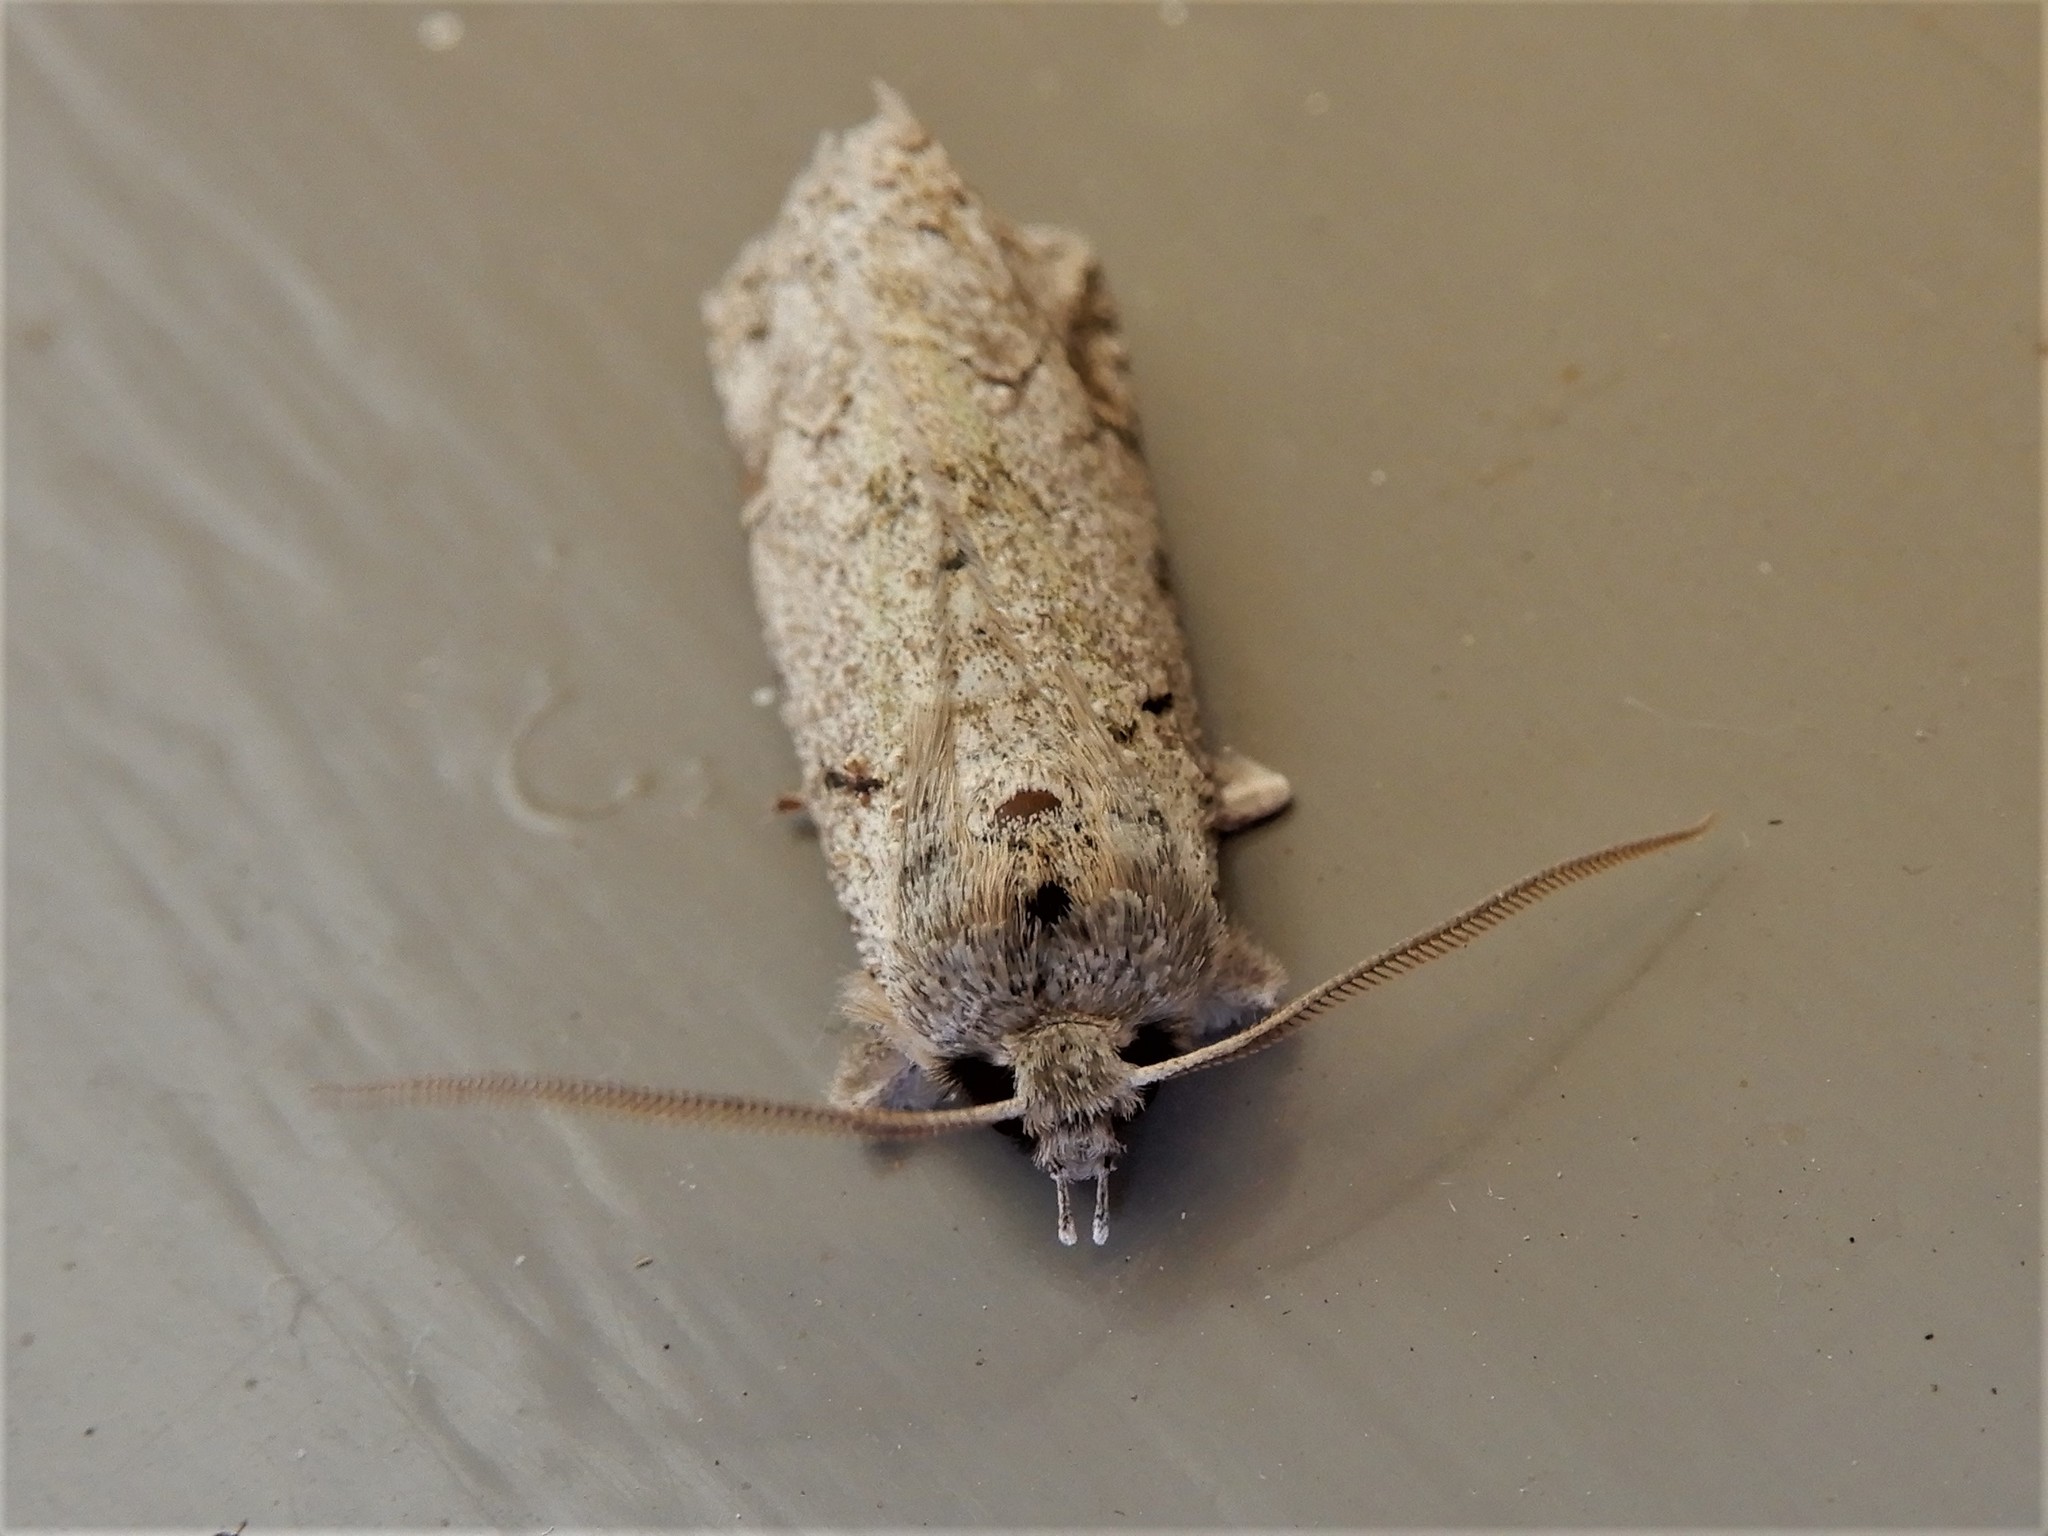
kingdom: Animalia
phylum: Arthropoda
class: Insecta
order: Lepidoptera
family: Geometridae
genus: Declana
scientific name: Declana floccosa
